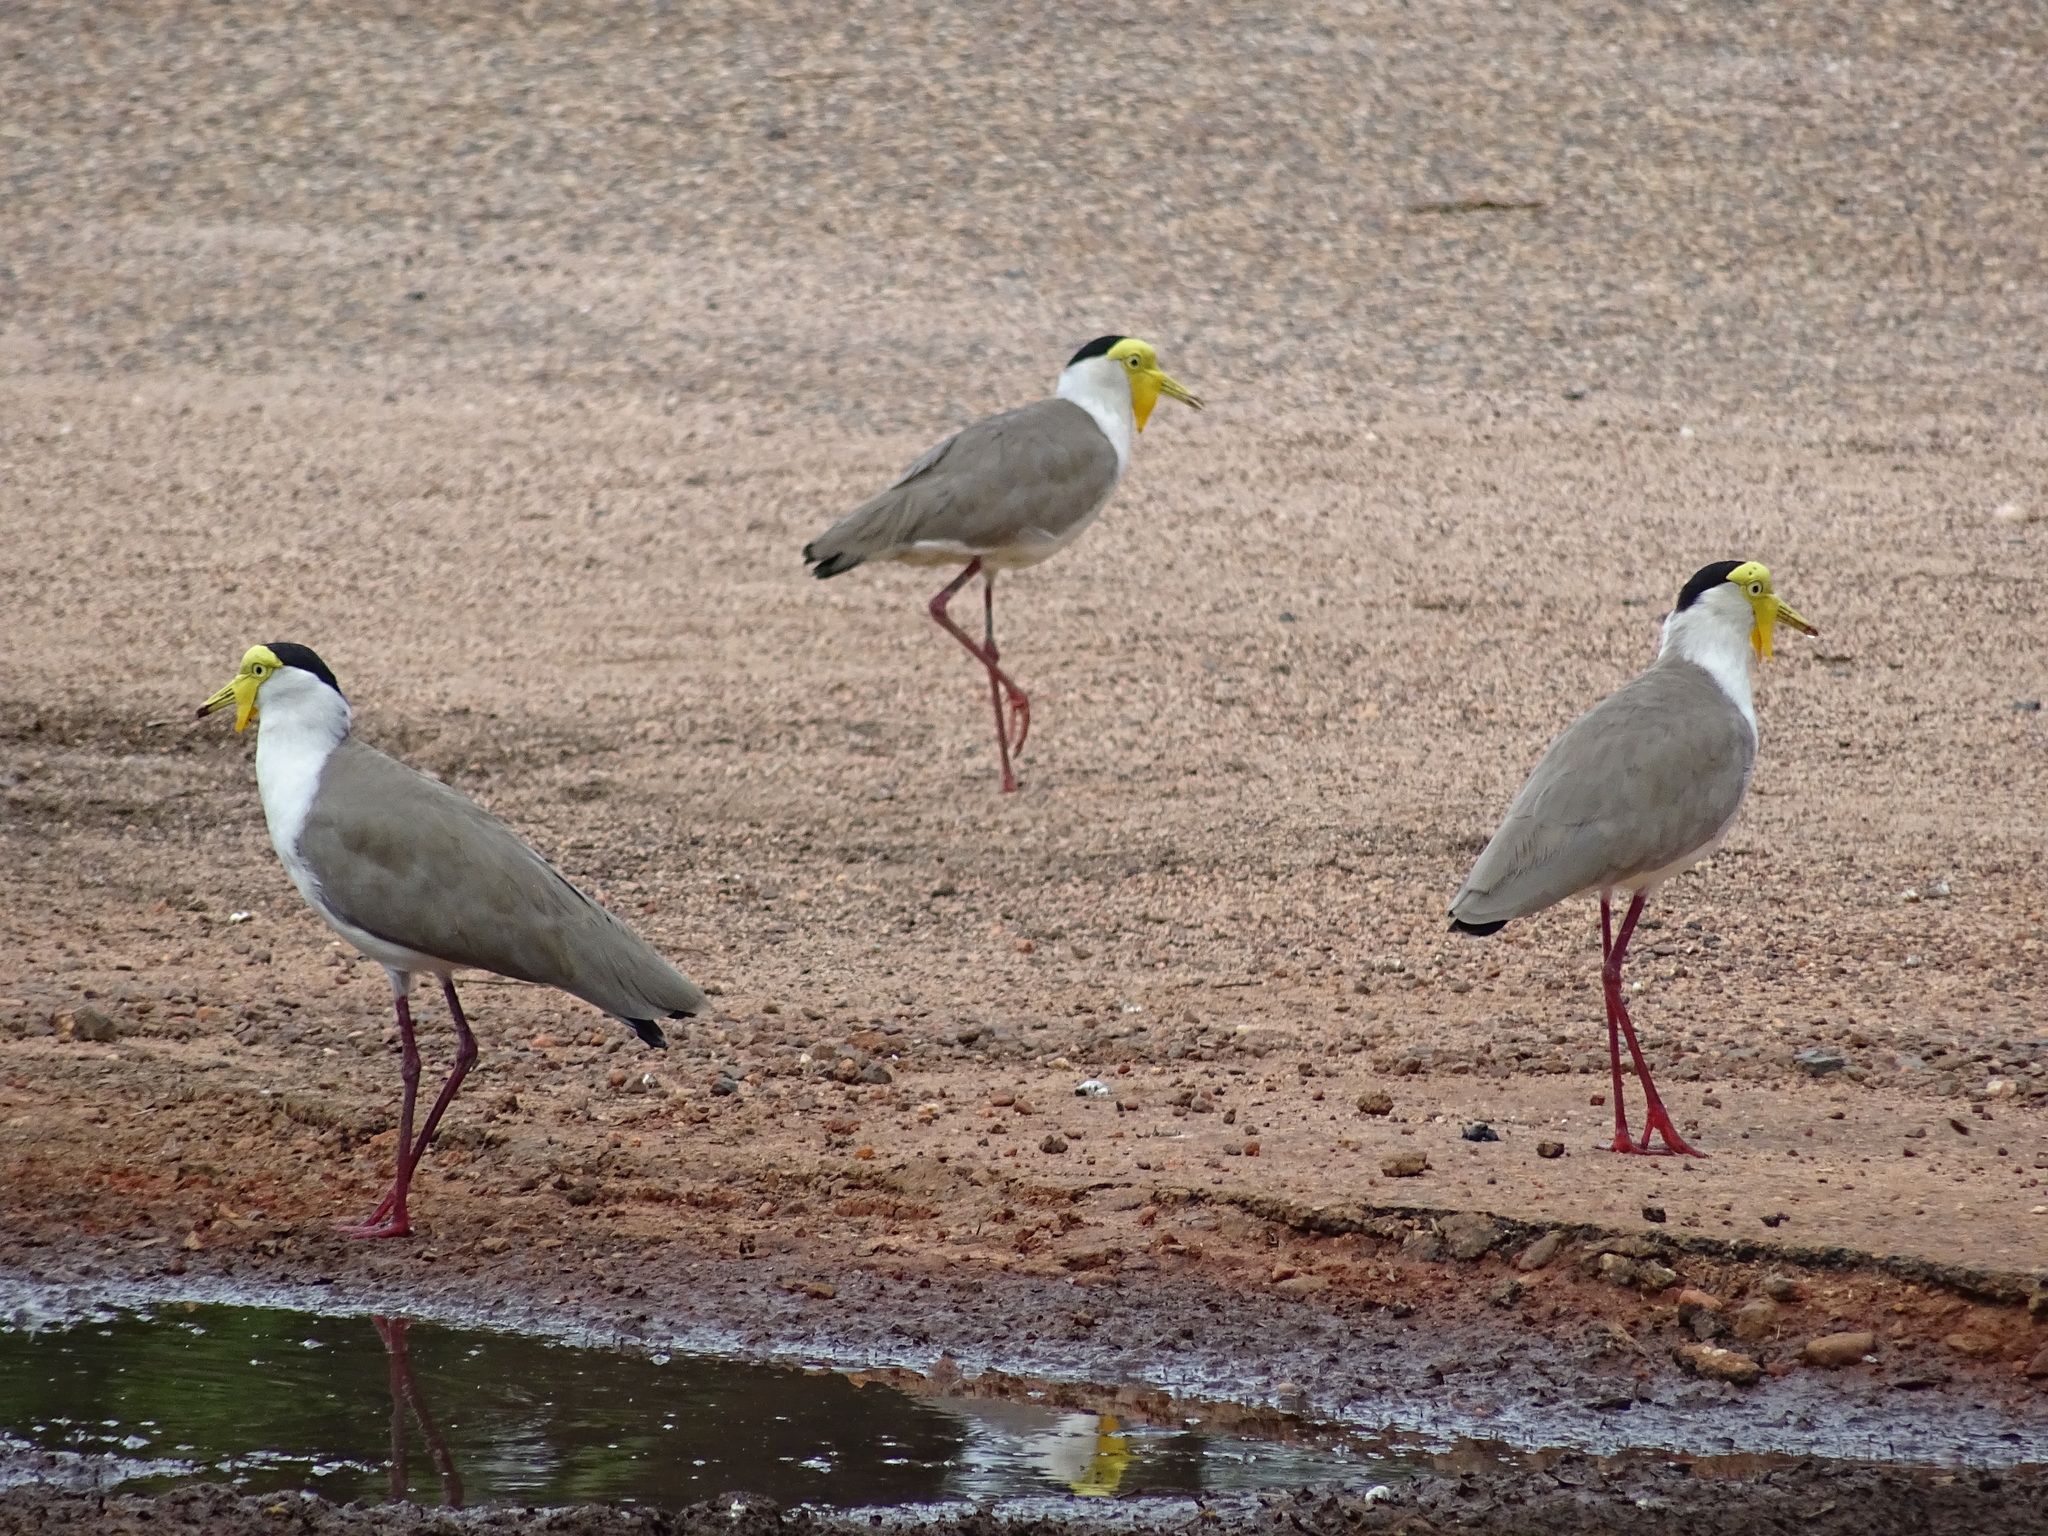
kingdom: Animalia
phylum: Chordata
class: Aves
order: Charadriiformes
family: Charadriidae
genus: Vanellus
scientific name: Vanellus miles
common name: Masked lapwing
